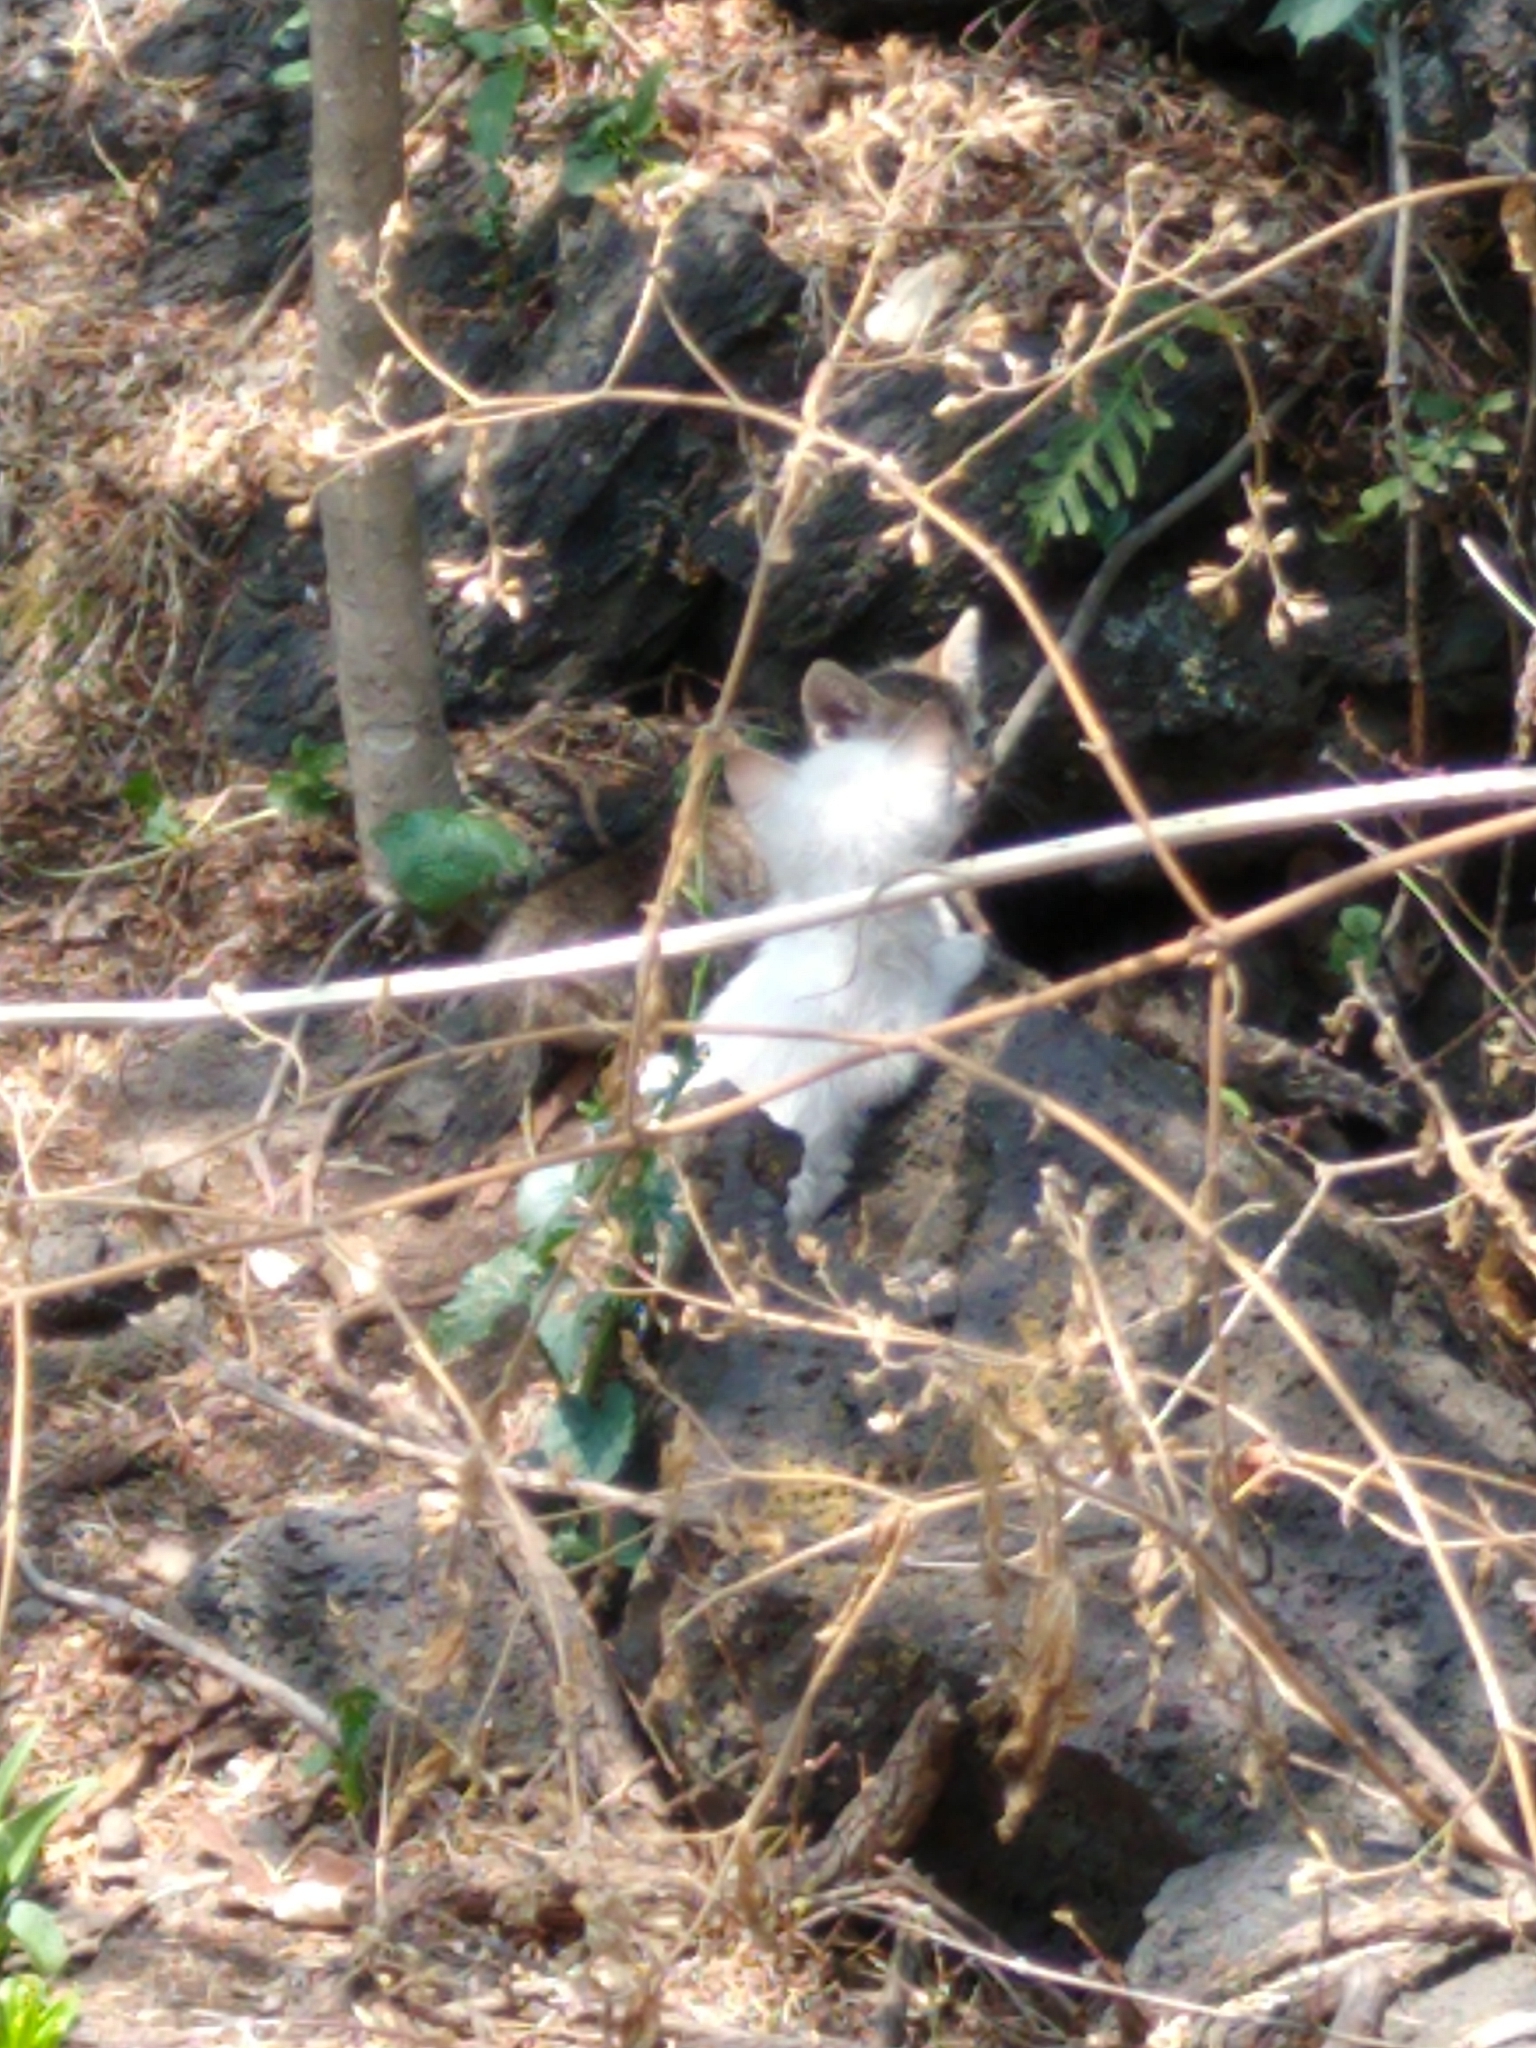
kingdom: Animalia
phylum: Chordata
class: Mammalia
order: Carnivora
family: Felidae
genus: Felis
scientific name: Felis catus
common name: Domestic cat
